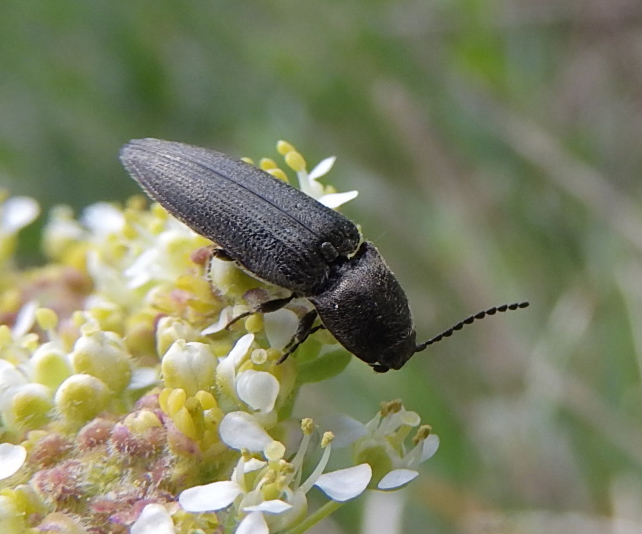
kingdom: Animalia
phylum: Arthropoda
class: Insecta
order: Coleoptera
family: Elateridae
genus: Cidnopus
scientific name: Cidnopus pilosus
